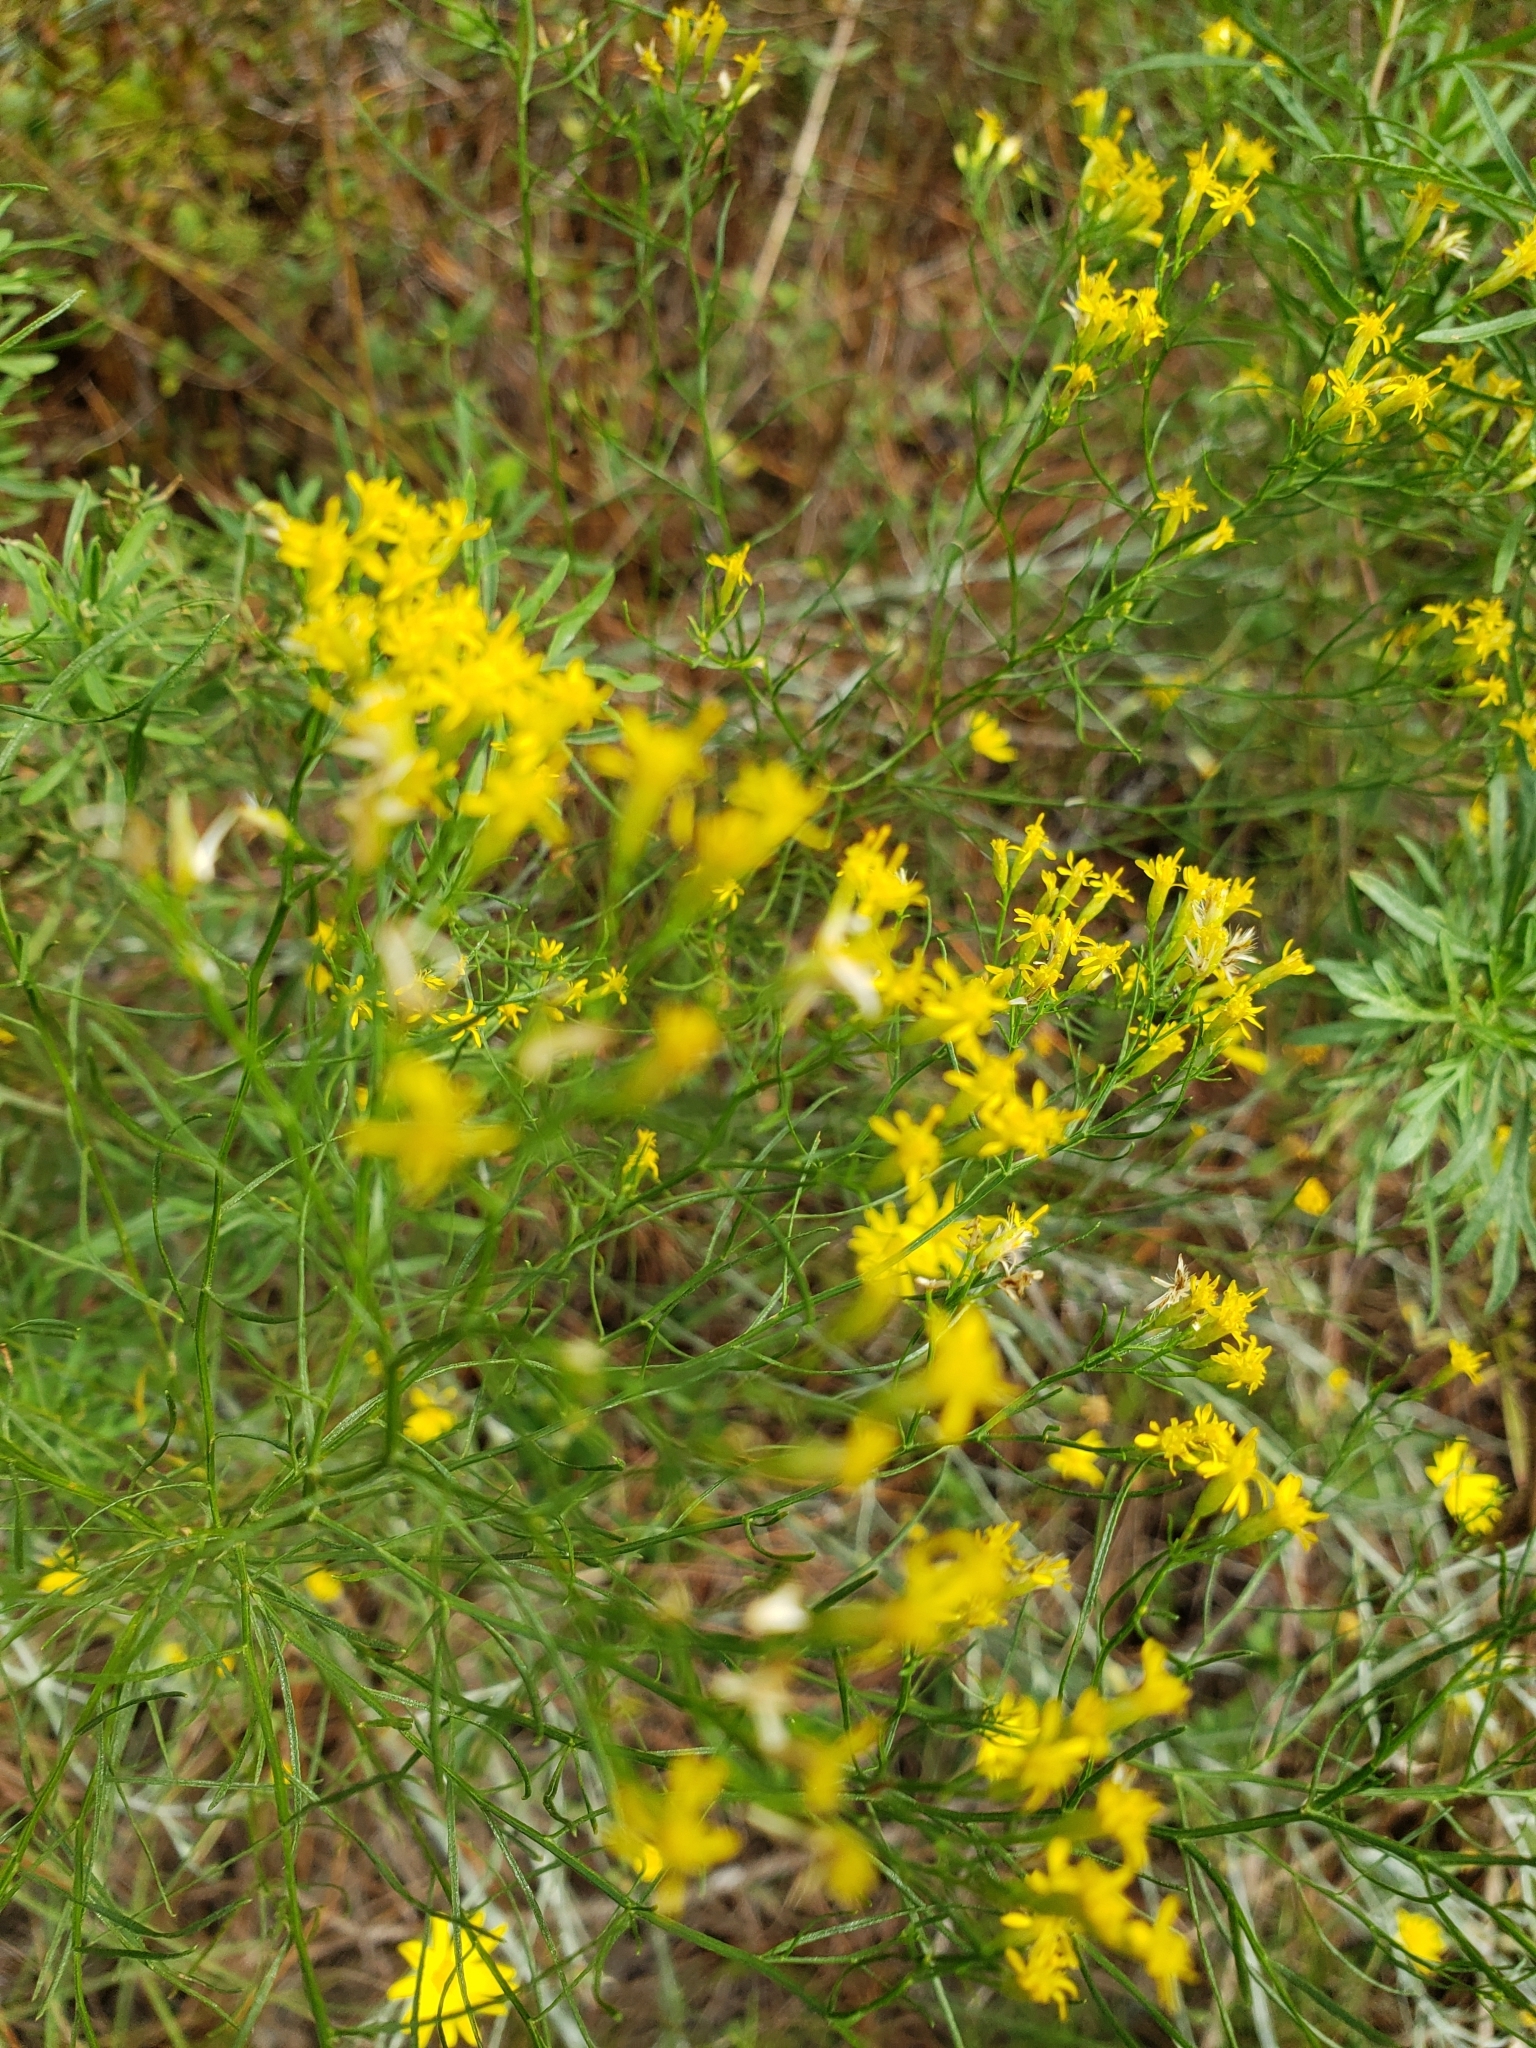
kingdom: Plantae
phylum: Tracheophyta
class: Magnoliopsida
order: Asterales
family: Asteraceae
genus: Euthamia
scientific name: Euthamia caroliniana
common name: Coastal plain goldentop
